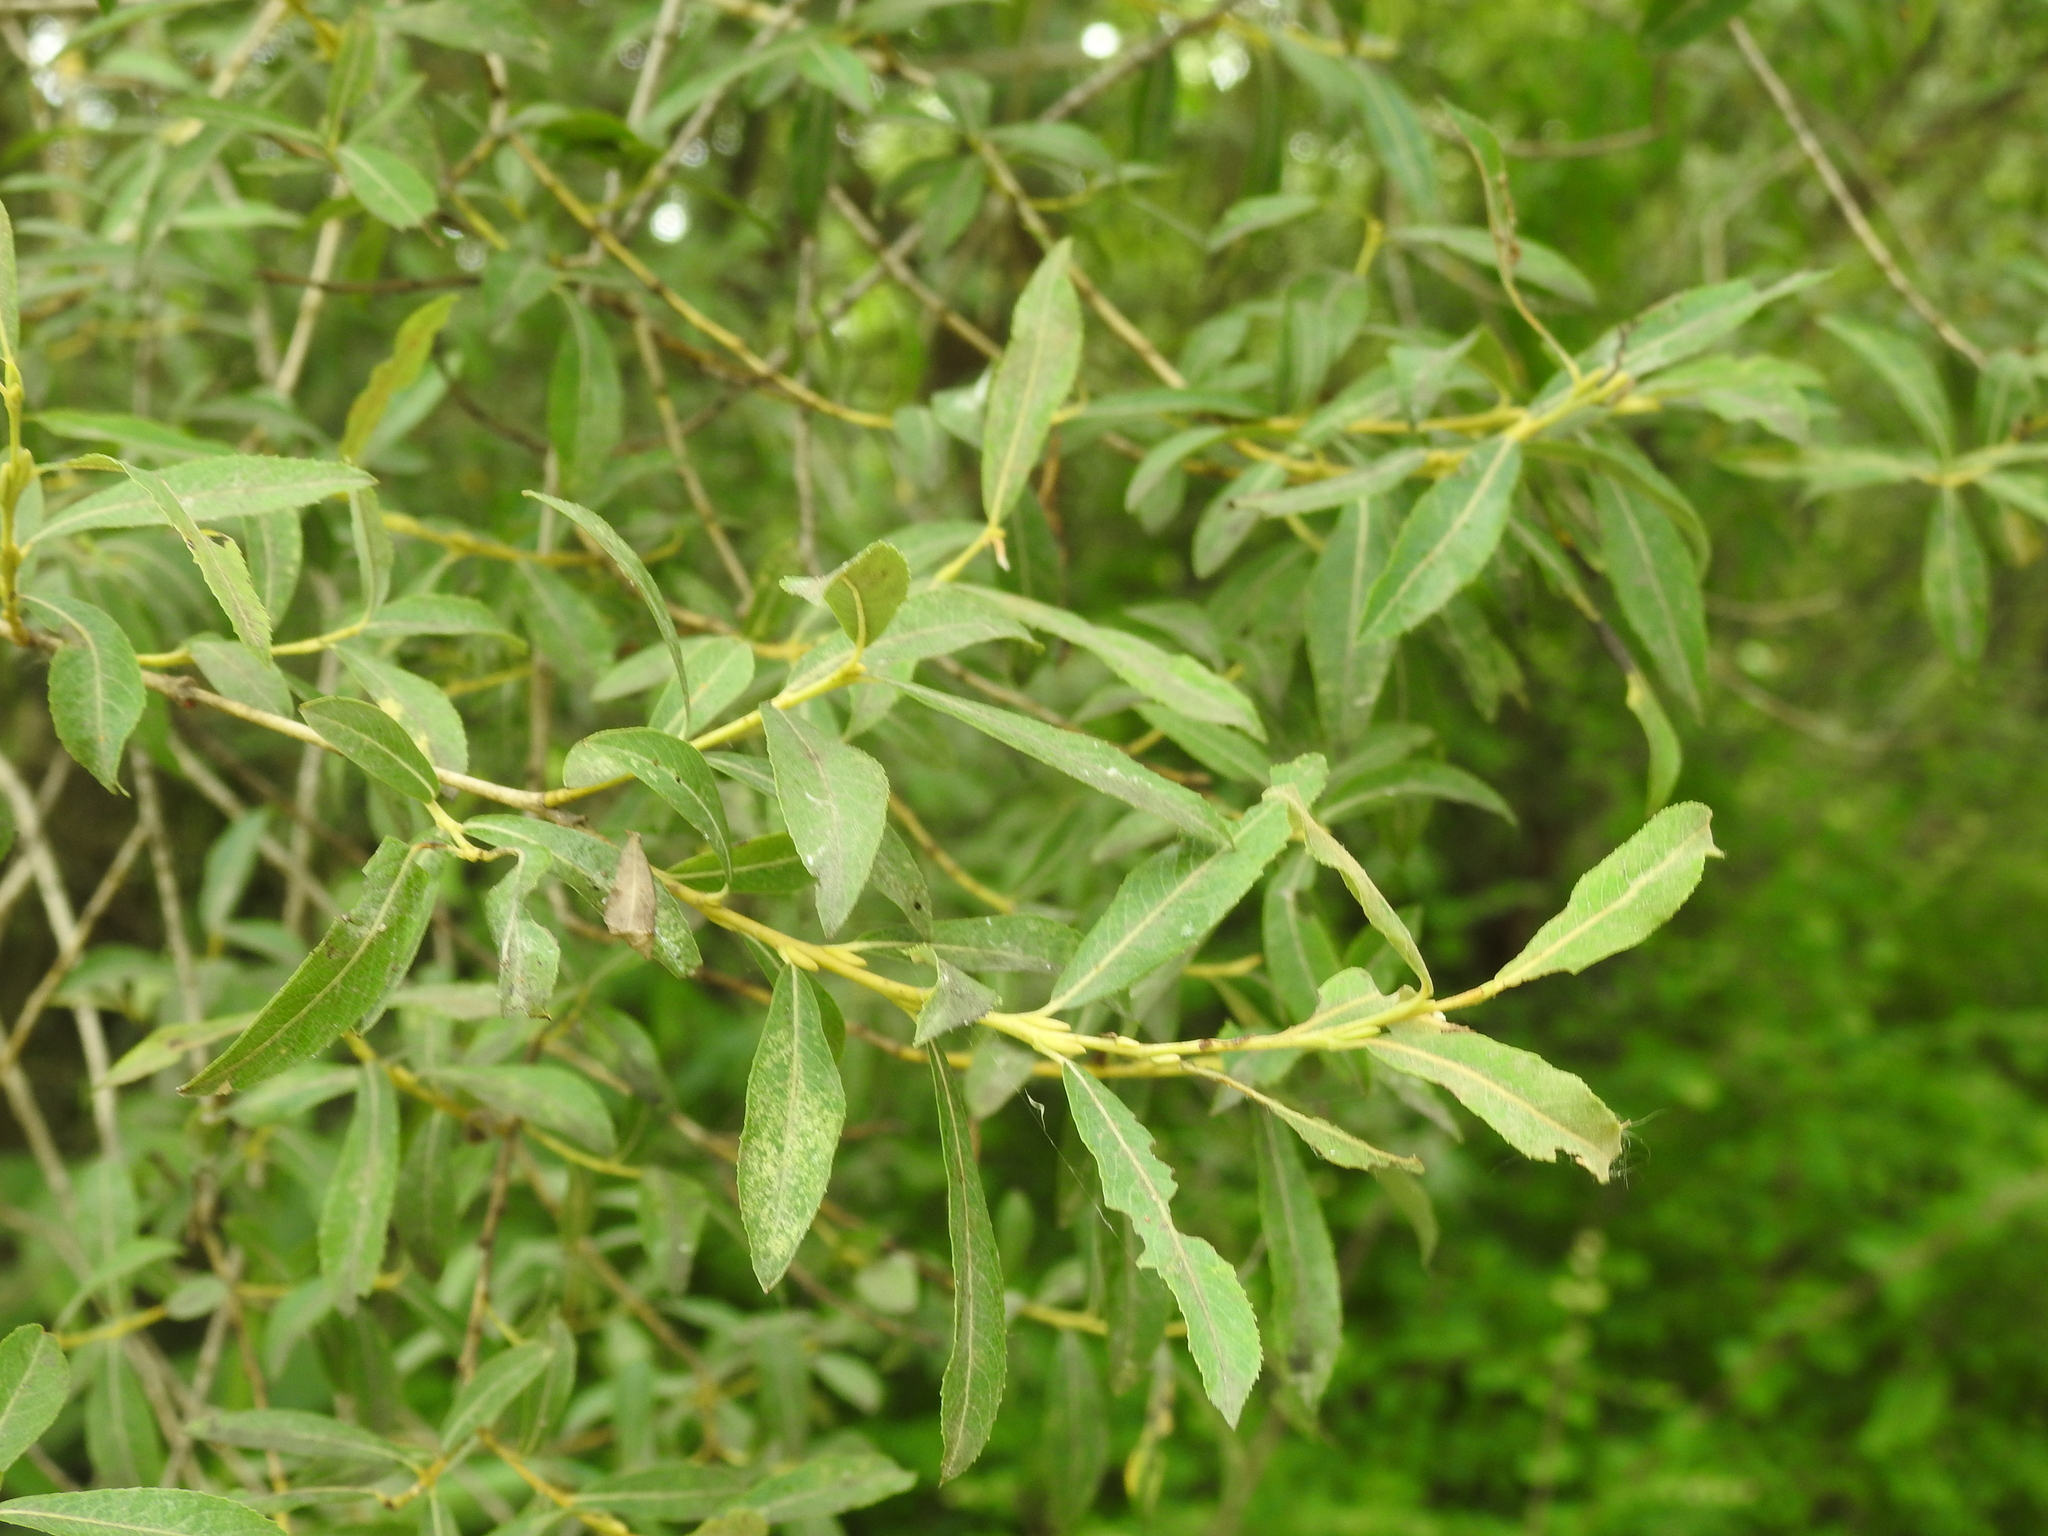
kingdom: Plantae
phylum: Tracheophyta
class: Magnoliopsida
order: Malpighiales
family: Salicaceae
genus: Salix
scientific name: Salix purpurea
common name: Purple willow
